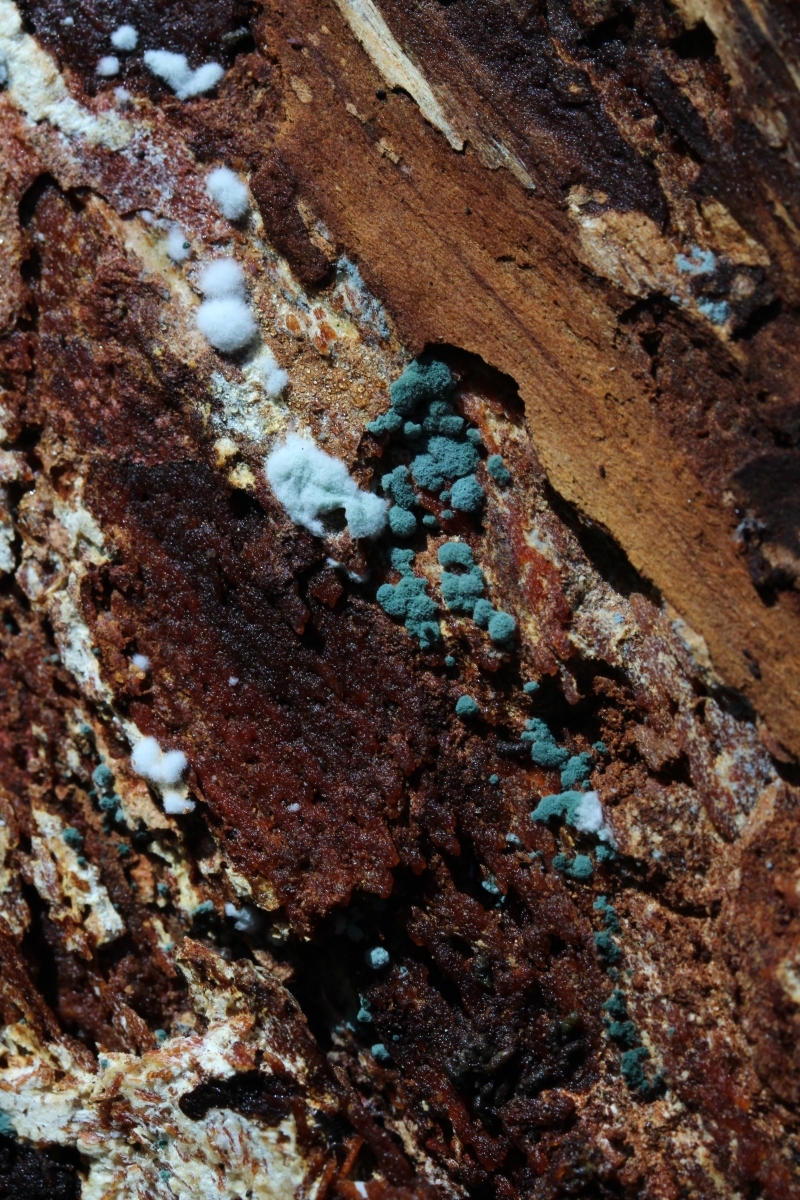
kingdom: Fungi
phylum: Ascomycota
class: Sordariomycetes
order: Hypocreales
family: Hypocreaceae
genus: Trichoderma
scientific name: Trichoderma
